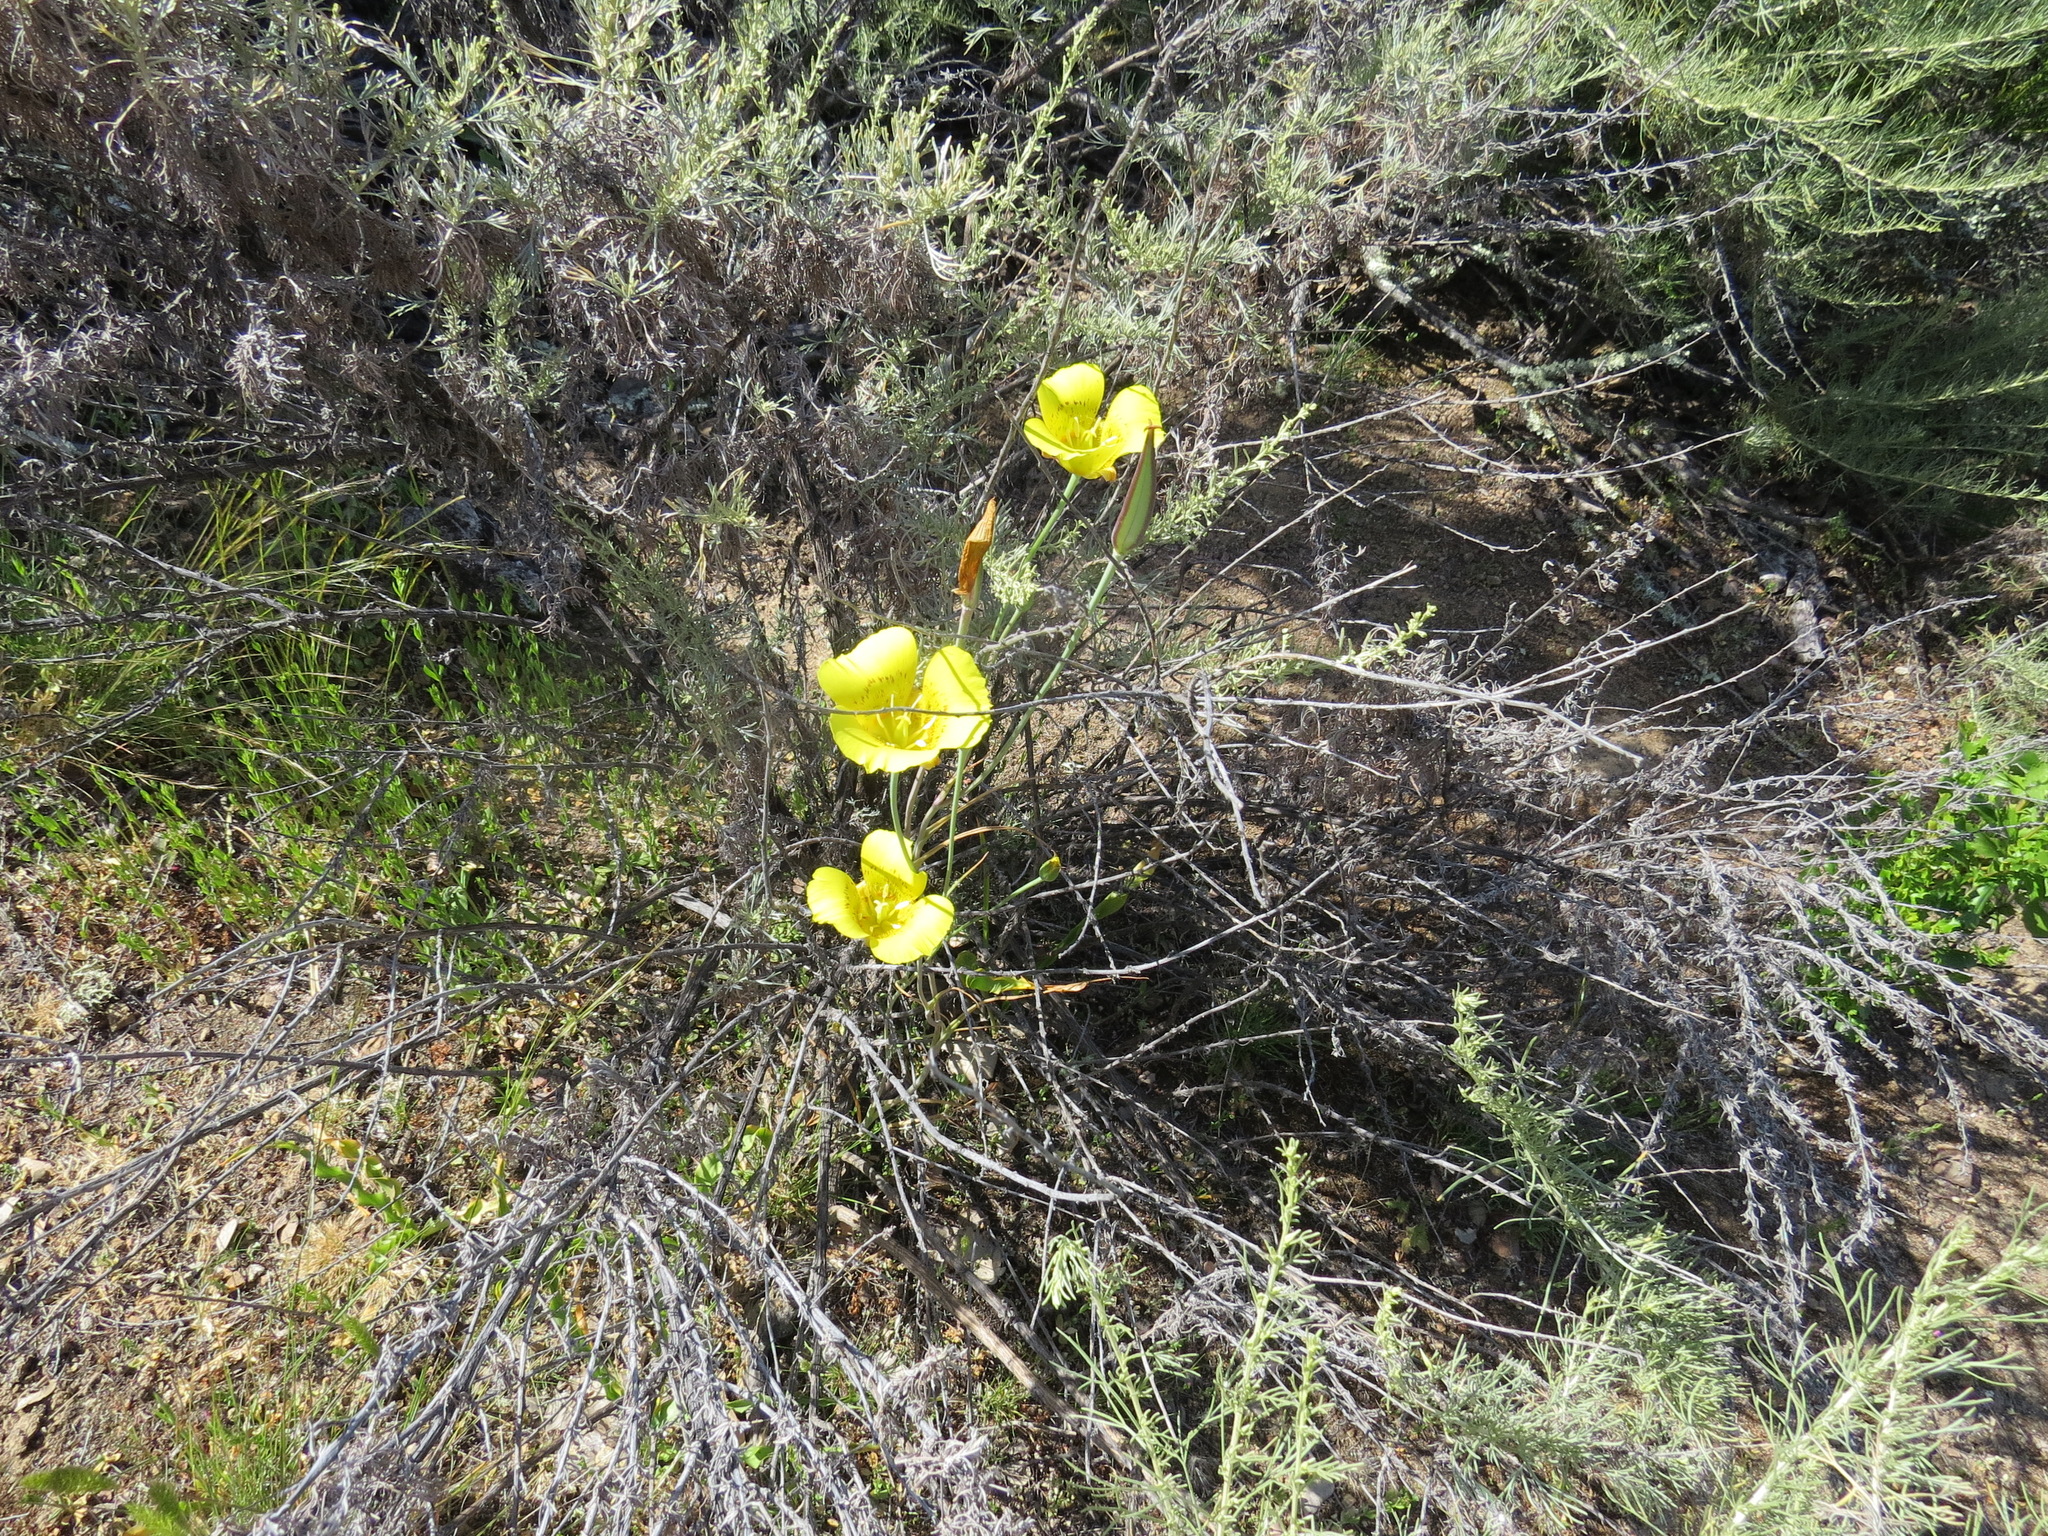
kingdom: Plantae
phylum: Tracheophyta
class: Liliopsida
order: Liliales
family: Liliaceae
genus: Calochortus
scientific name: Calochortus luteus
